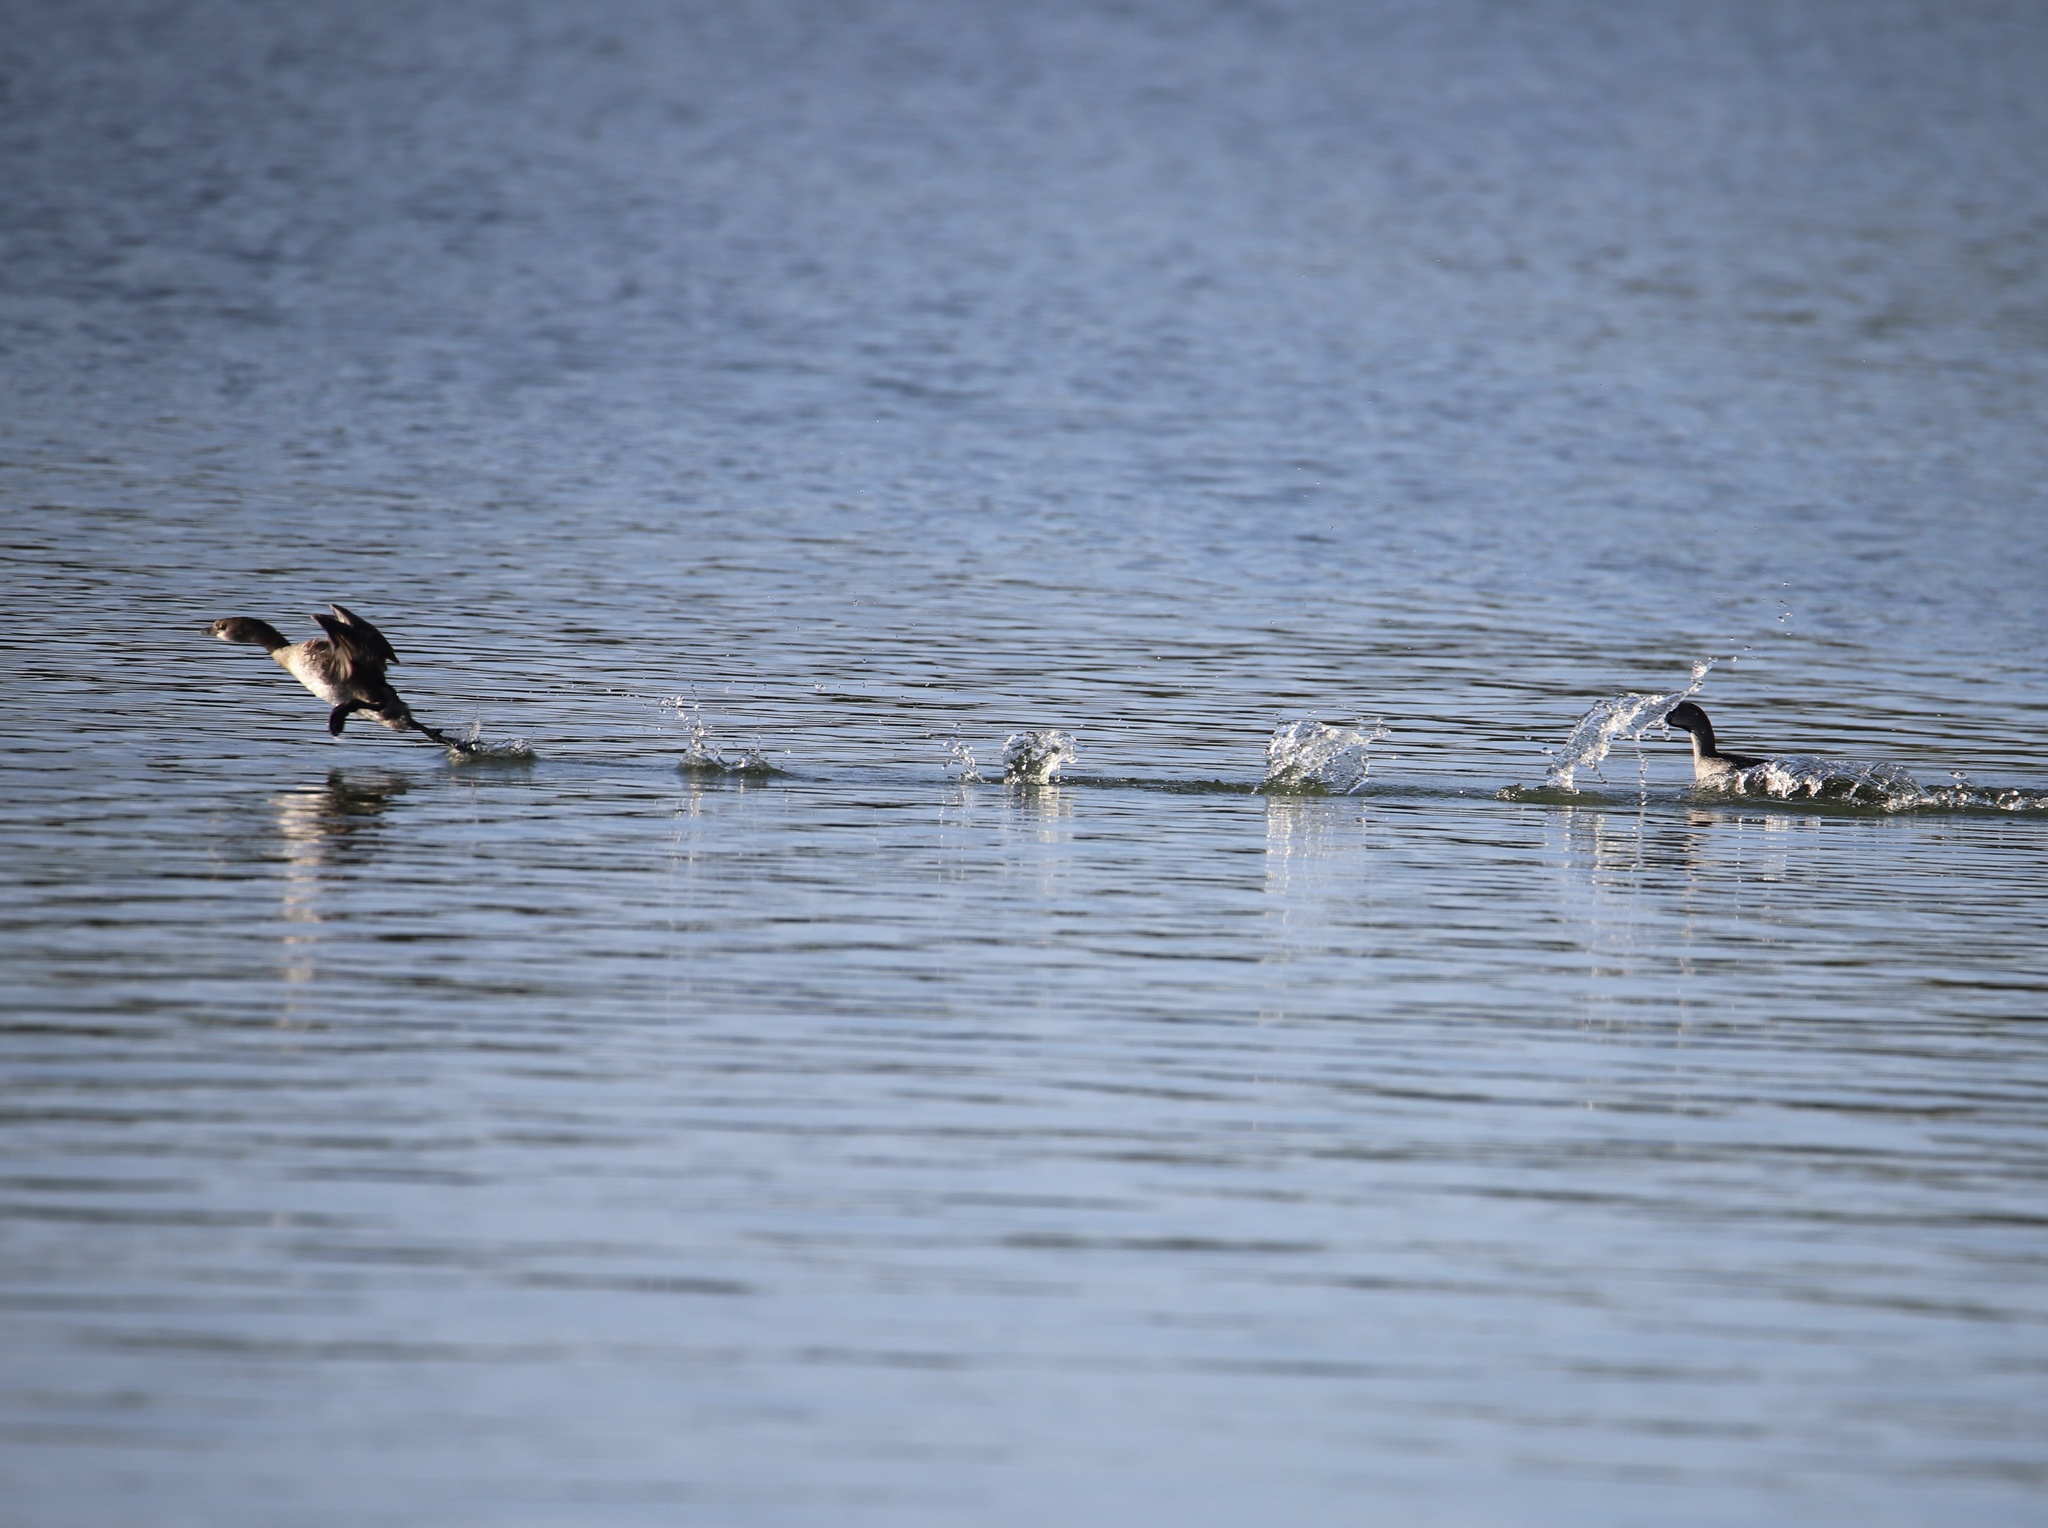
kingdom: Animalia
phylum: Chordata
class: Aves
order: Podicipediformes
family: Podicipedidae
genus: Podilymbus
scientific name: Podilymbus podiceps
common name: Pied-billed grebe
